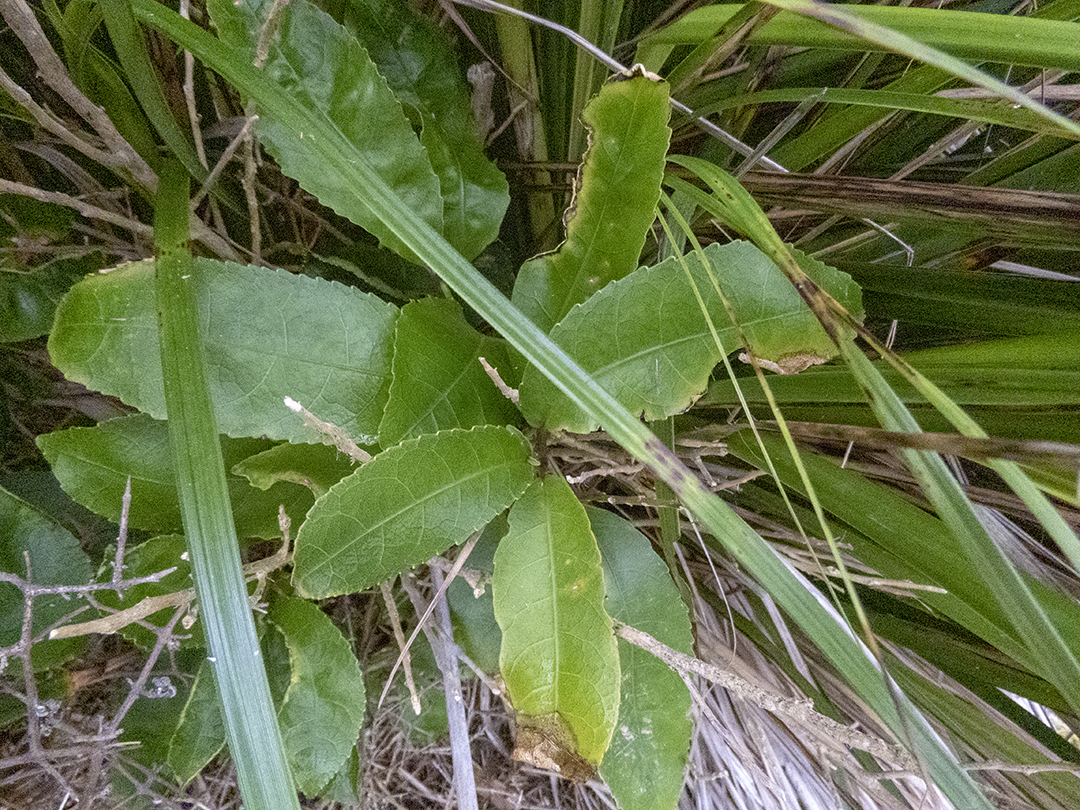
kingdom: Plantae
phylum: Tracheophyta
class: Magnoliopsida
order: Malpighiales
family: Violaceae
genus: Melicytus
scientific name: Melicytus ramiflorus
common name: Mahoe
